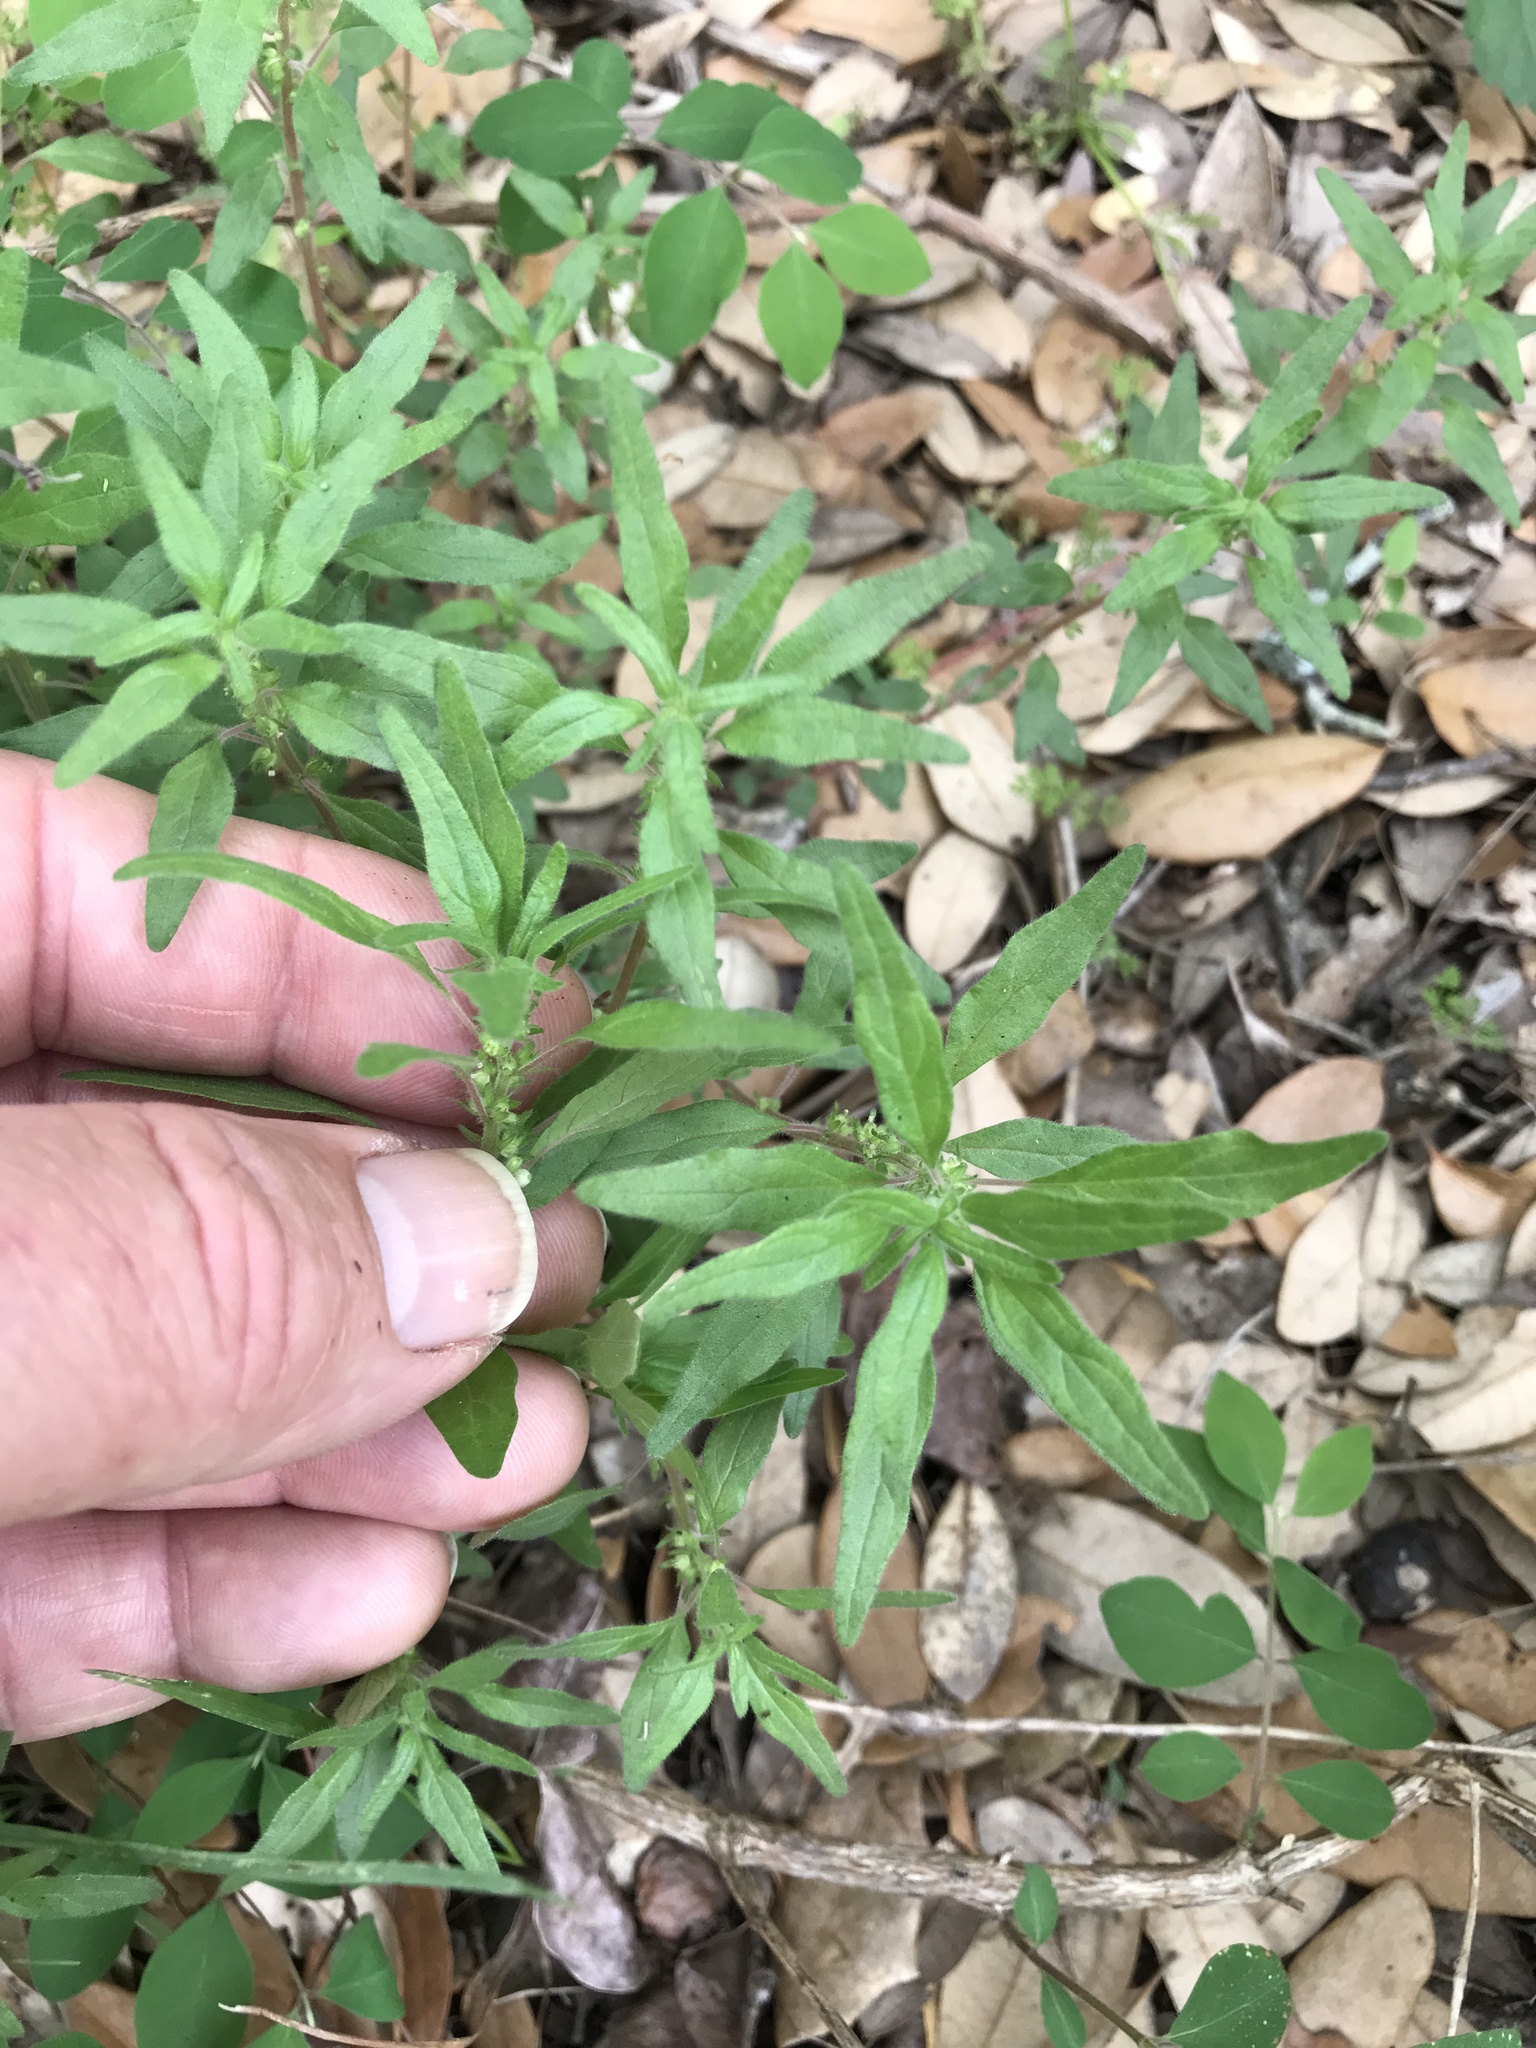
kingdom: Plantae
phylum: Tracheophyta
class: Magnoliopsida
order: Rosales
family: Urticaceae
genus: Parietaria
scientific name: Parietaria pensylvanica
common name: Pennsylvania pellitory
